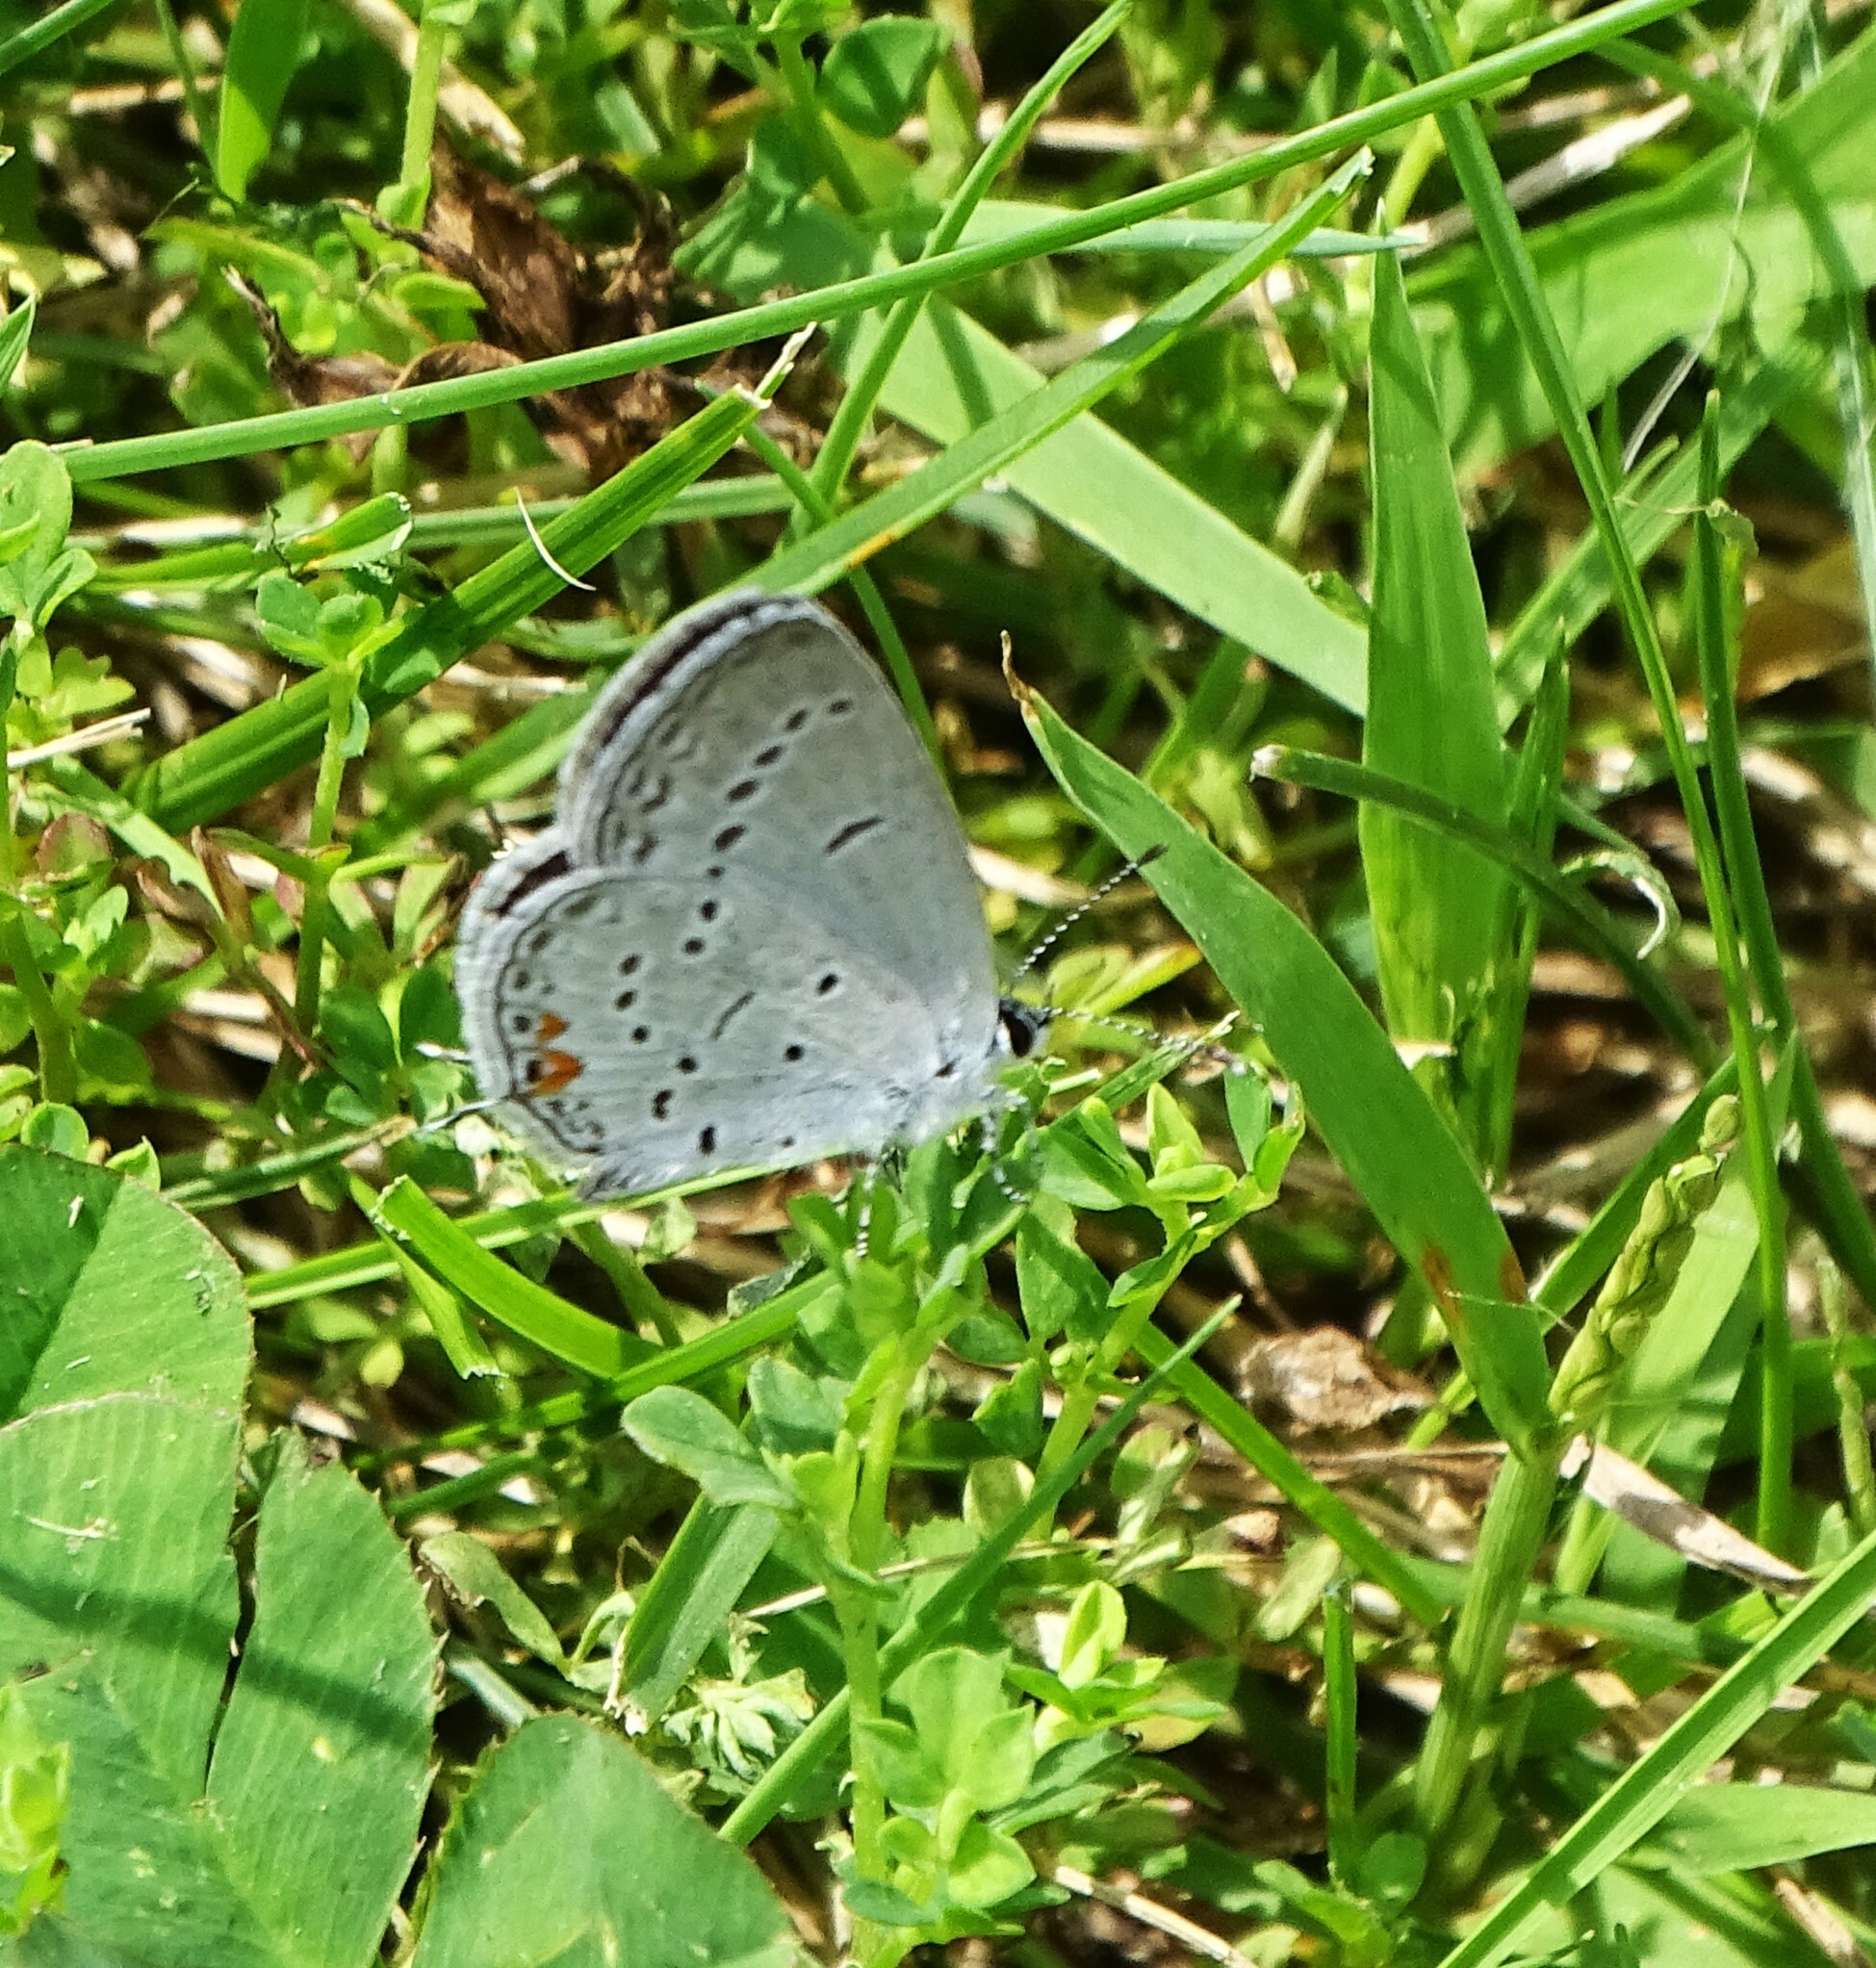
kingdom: Animalia
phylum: Arthropoda
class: Insecta
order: Lepidoptera
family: Lycaenidae
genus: Elkalyce
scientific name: Elkalyce comyntas
